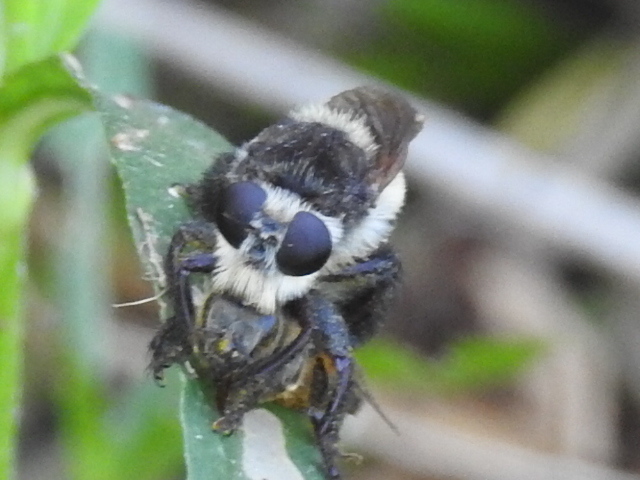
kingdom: Animalia
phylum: Arthropoda
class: Insecta
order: Diptera
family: Asilidae
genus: Mallophora
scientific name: Mallophora fautrix
